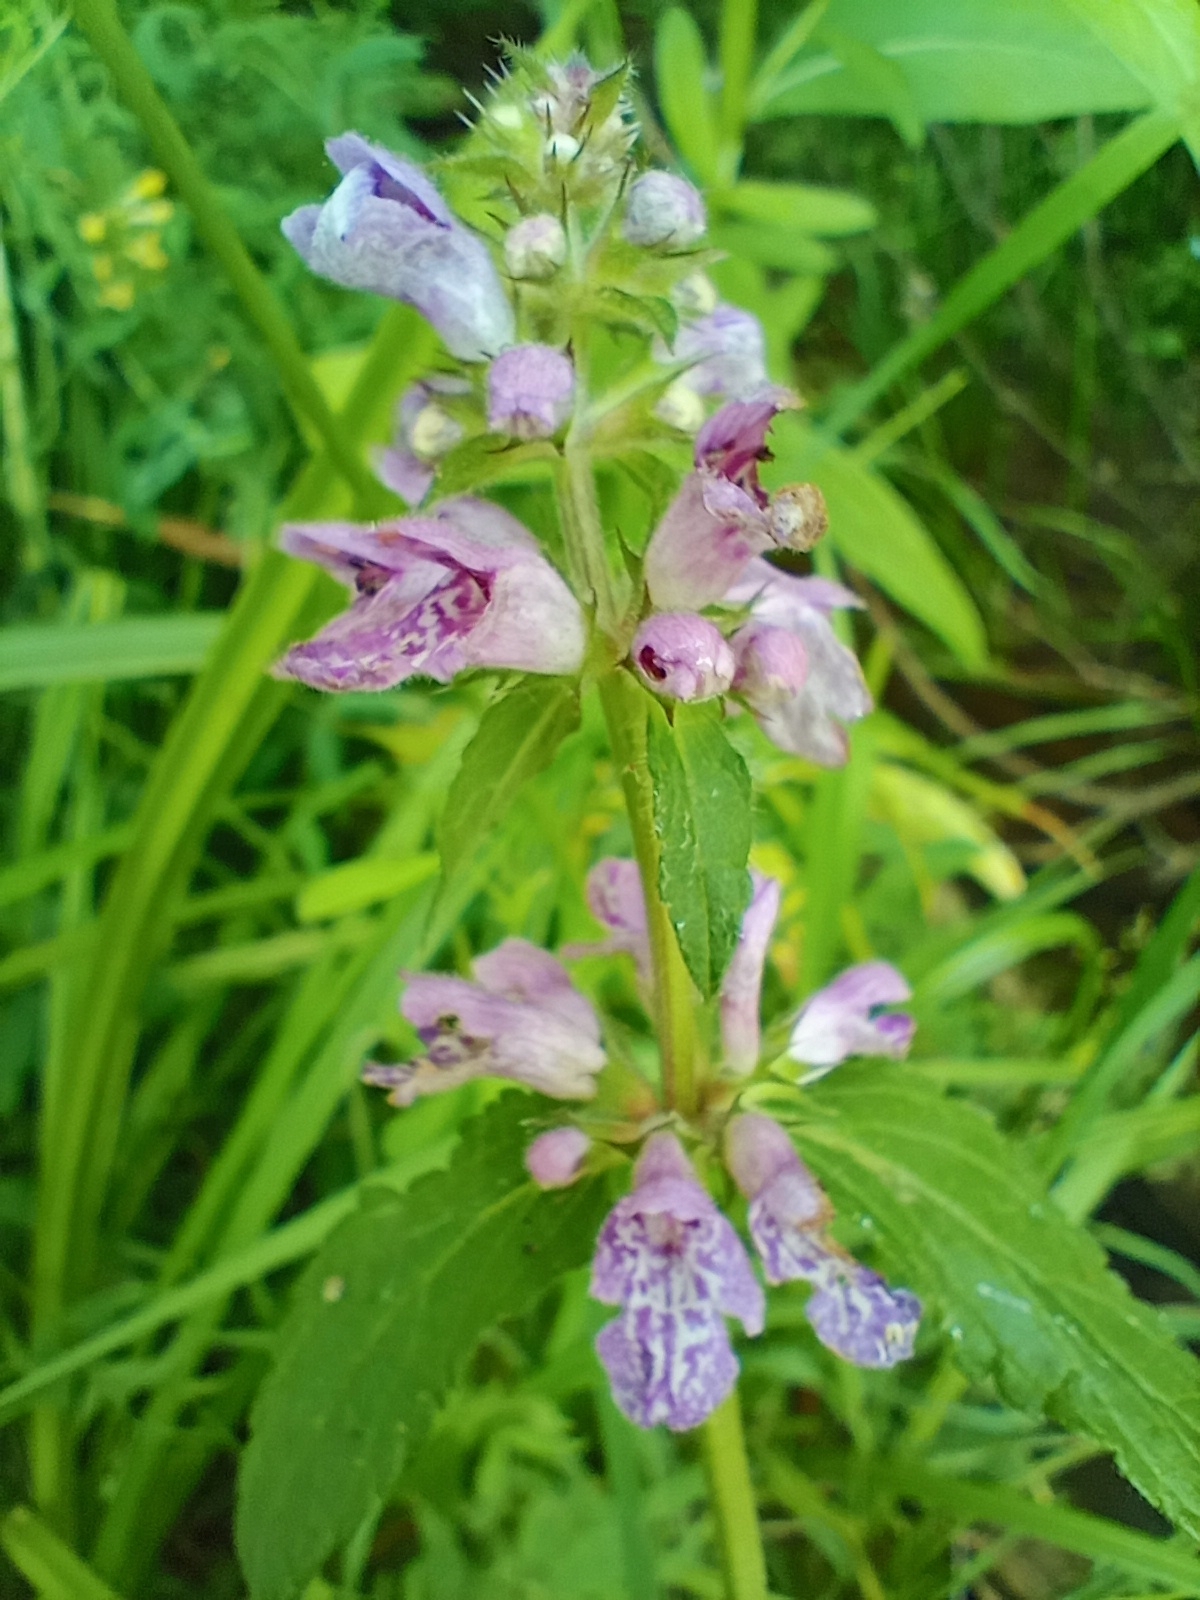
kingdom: Plantae
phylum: Tracheophyta
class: Magnoliopsida
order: Lamiales
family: Lamiaceae
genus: Stachys
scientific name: Stachys palustris
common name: Marsh woundwort
